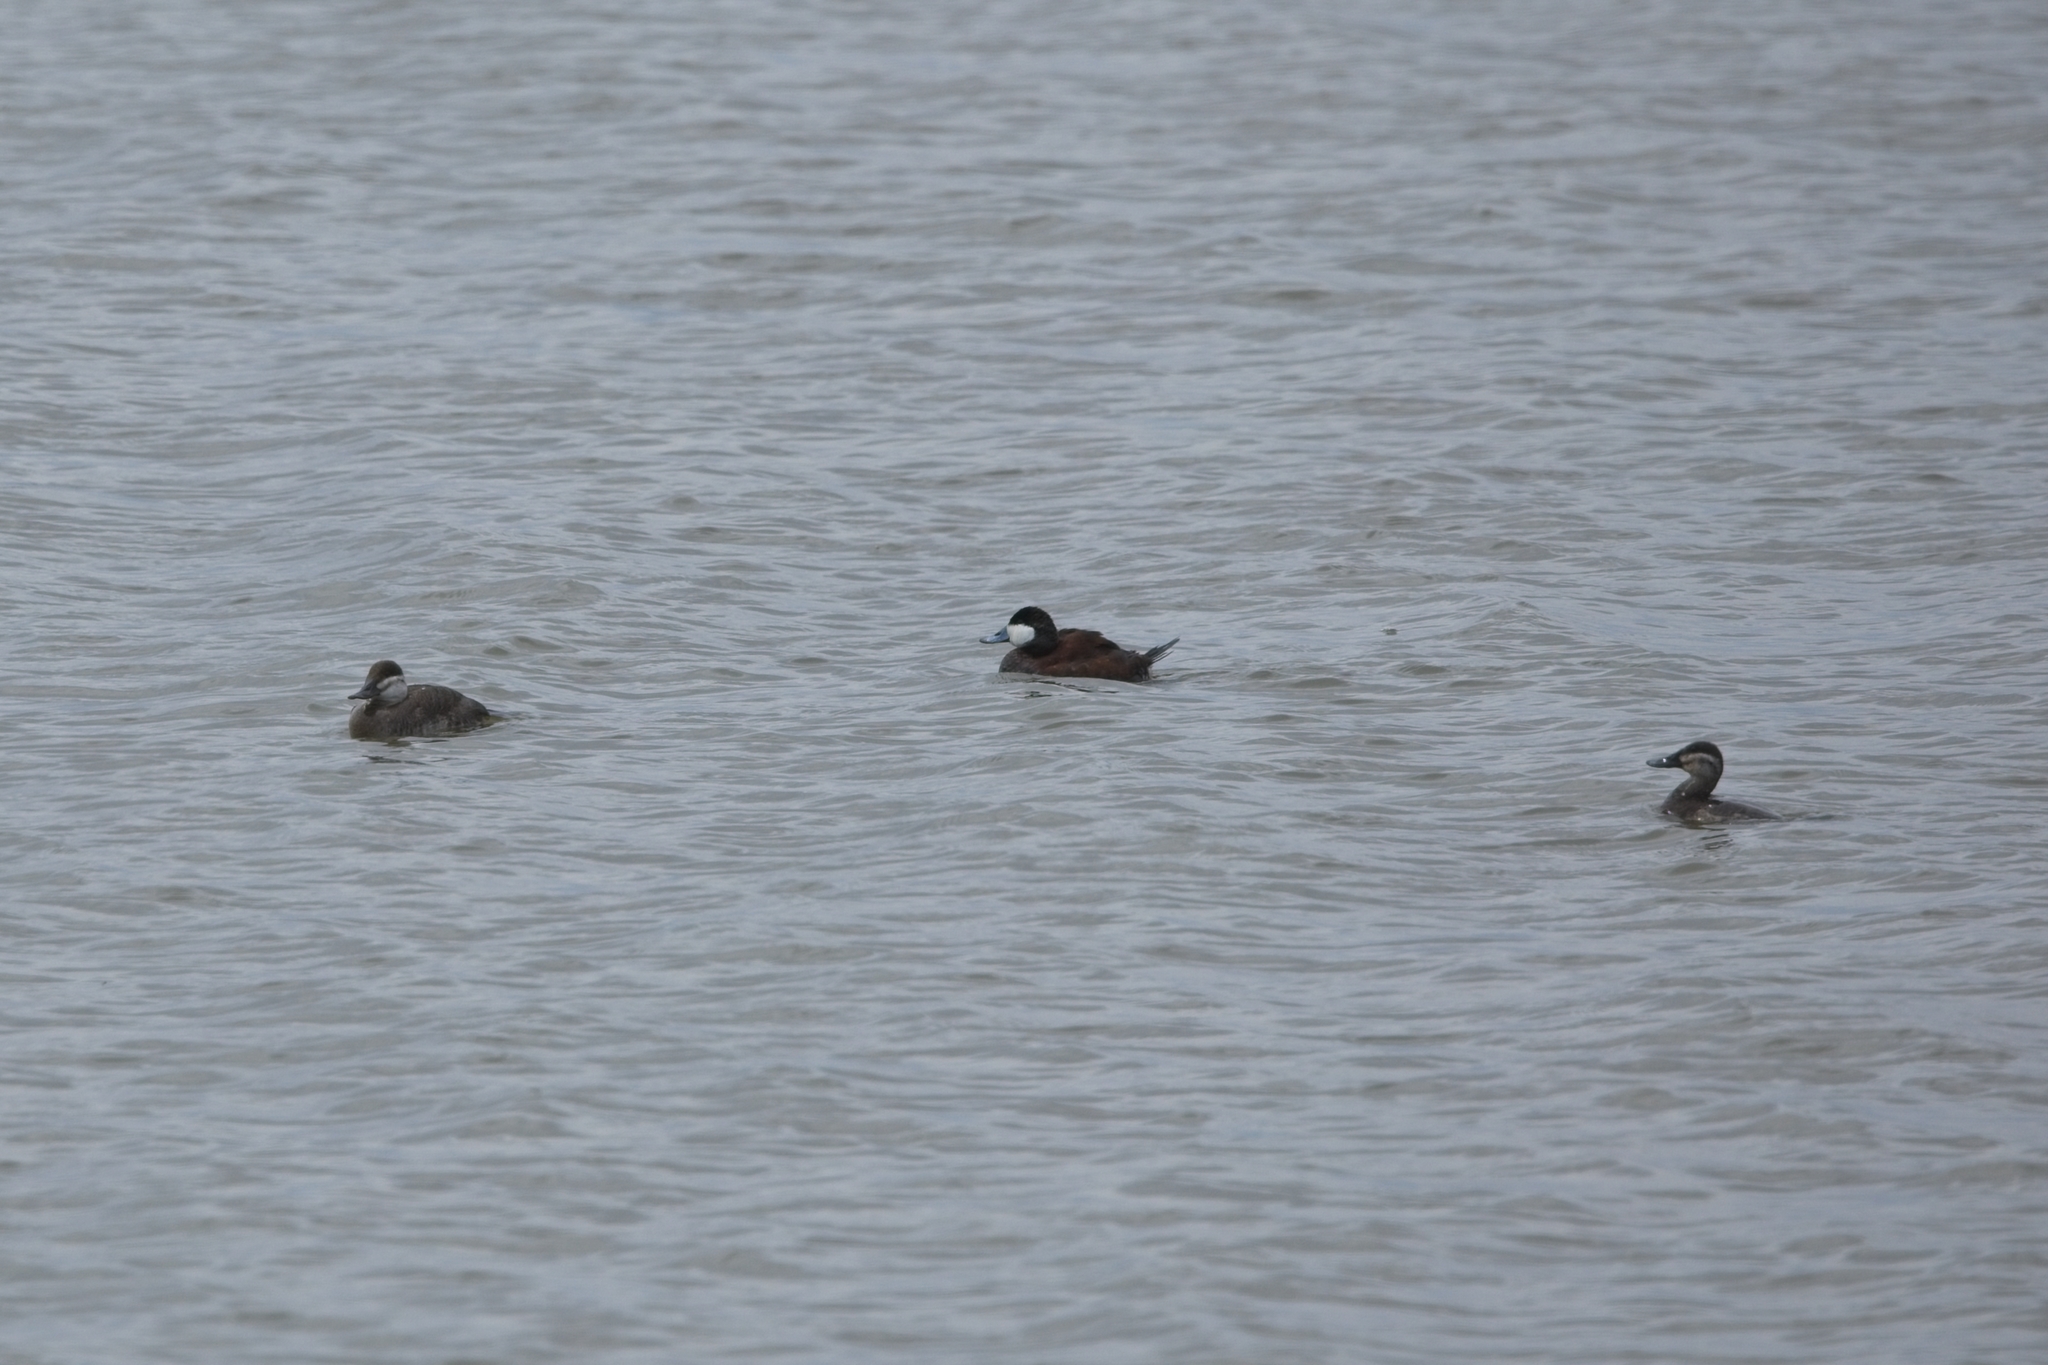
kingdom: Animalia
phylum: Chordata
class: Aves
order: Anseriformes
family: Anatidae
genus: Oxyura
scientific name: Oxyura jamaicensis
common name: Ruddy duck
